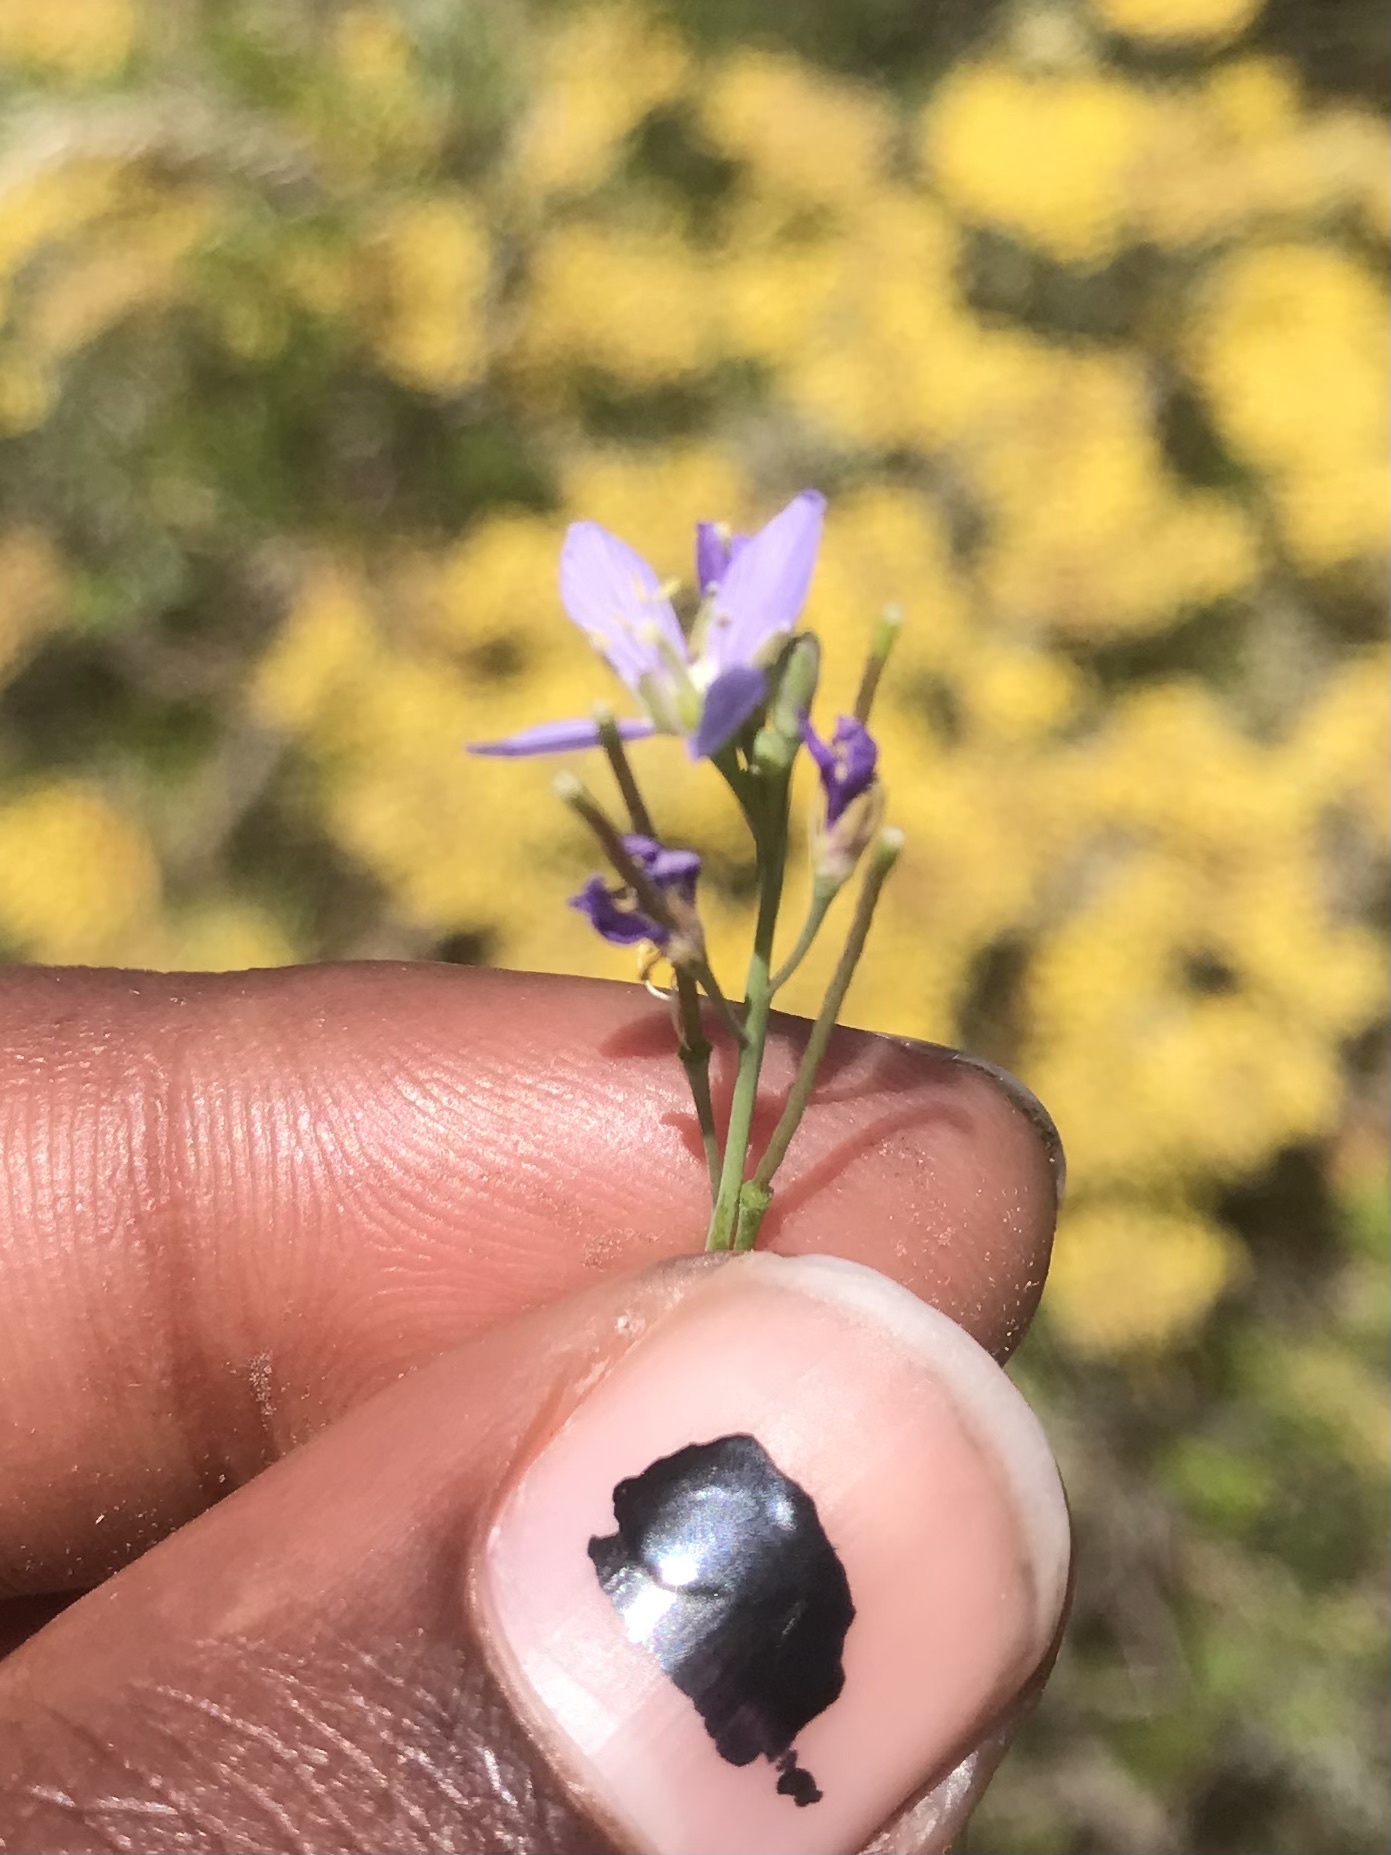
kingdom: Plantae
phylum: Tracheophyta
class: Magnoliopsida
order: Brassicales
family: Brassicaceae
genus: Heliophila
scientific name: Heliophila adpressa
